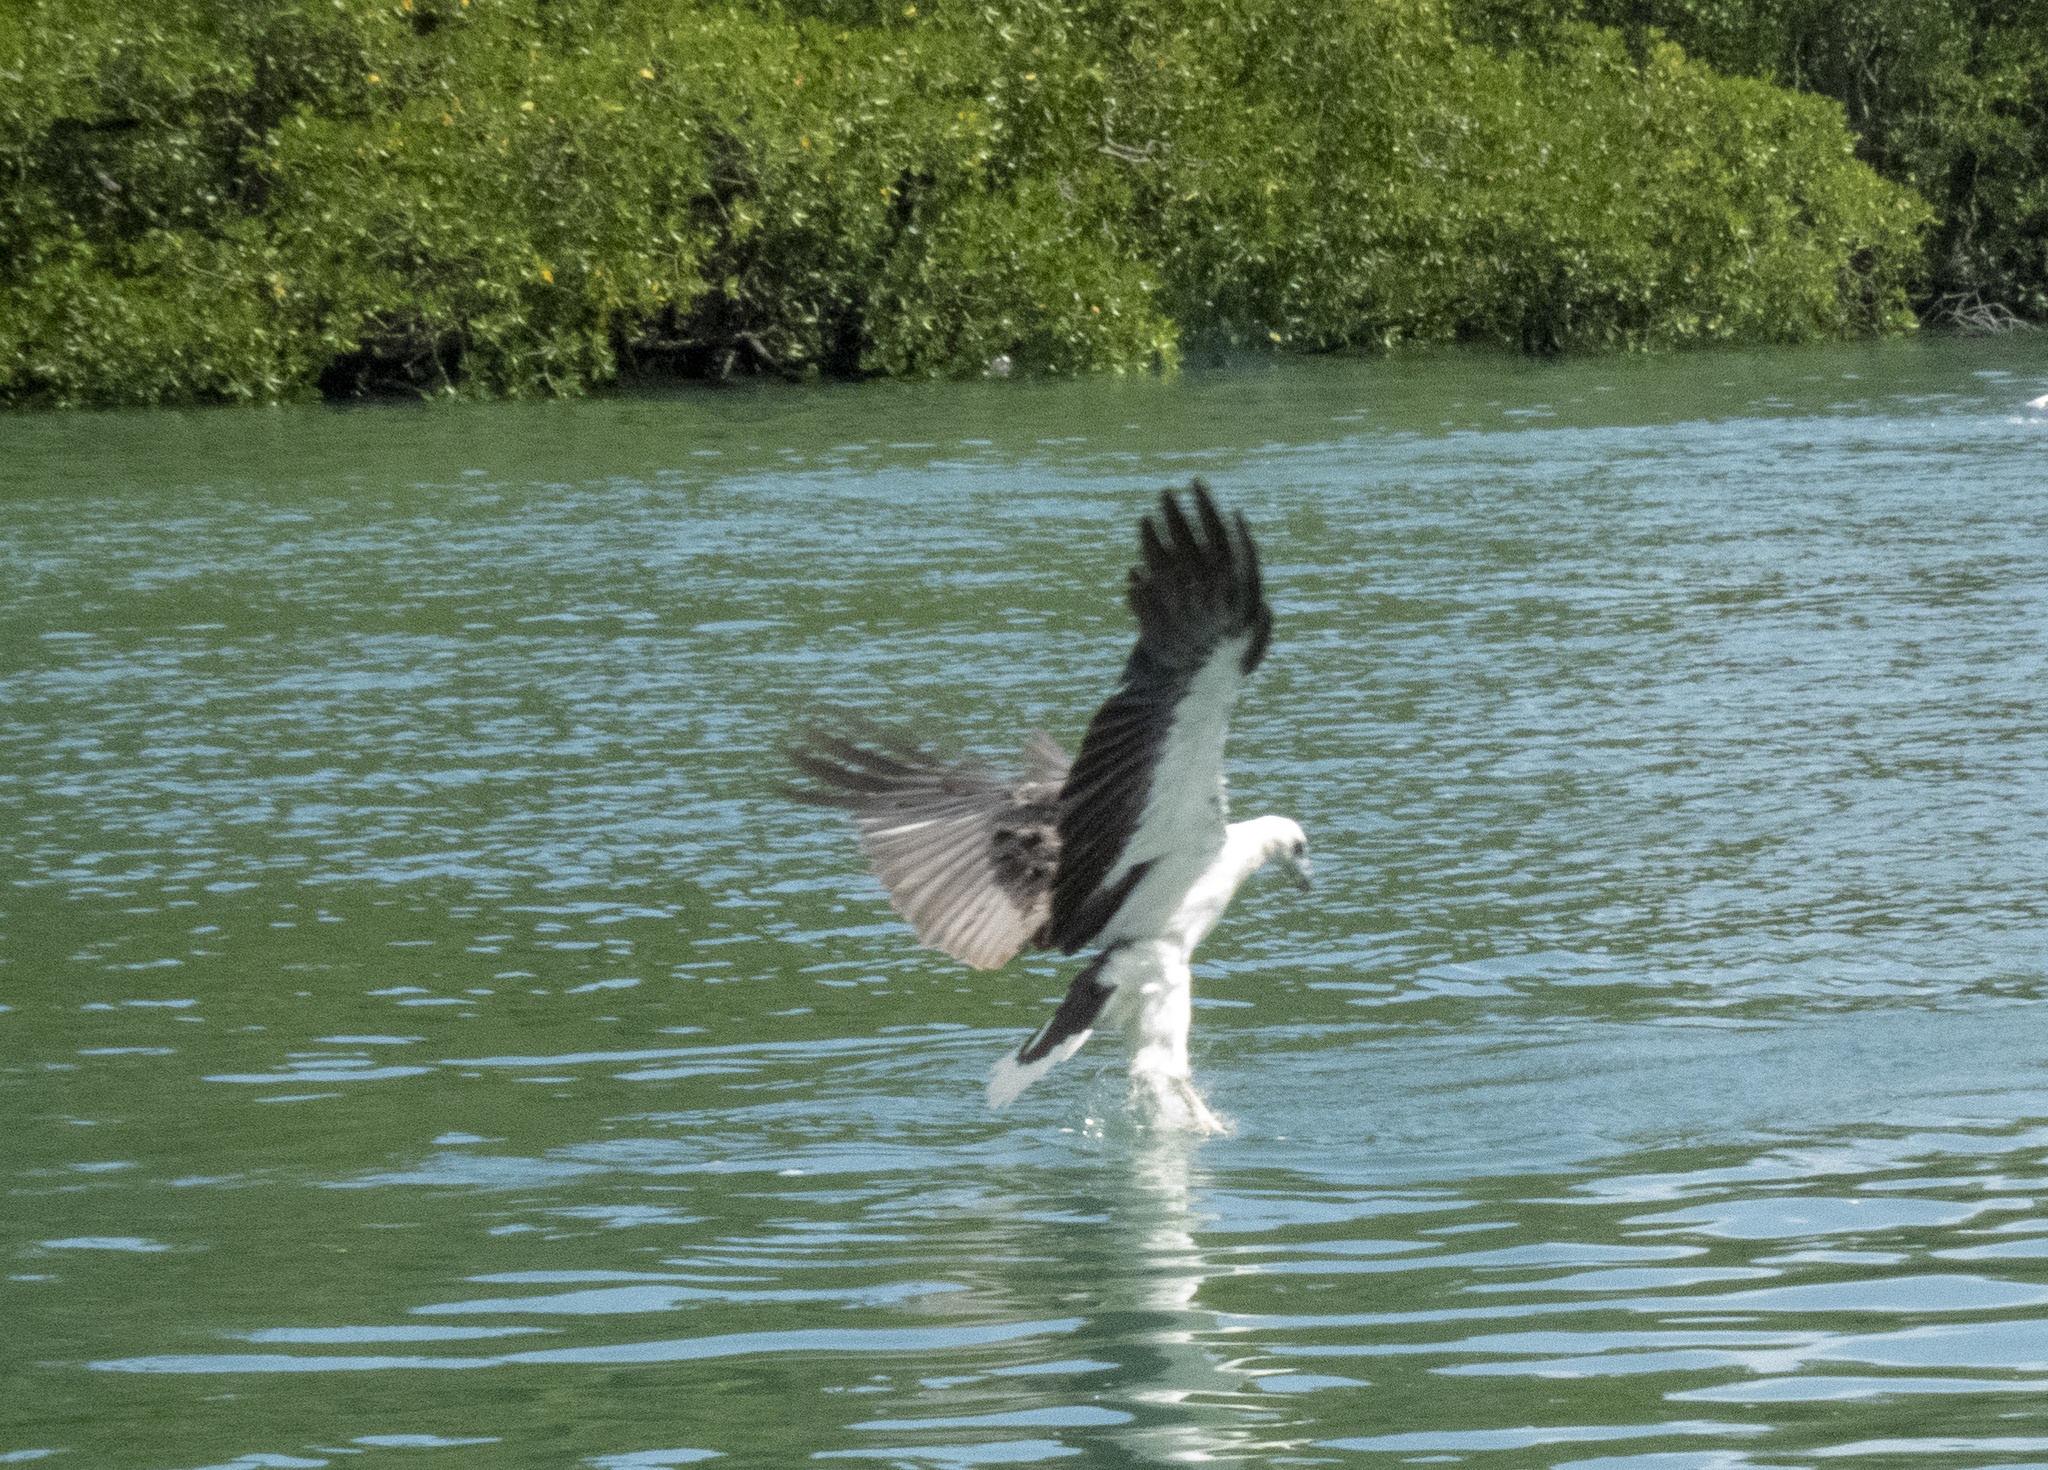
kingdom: Animalia
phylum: Chordata
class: Aves
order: Accipitriformes
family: Accipitridae
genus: Haliaeetus
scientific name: Haliaeetus leucogaster
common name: White-bellied sea eagle
